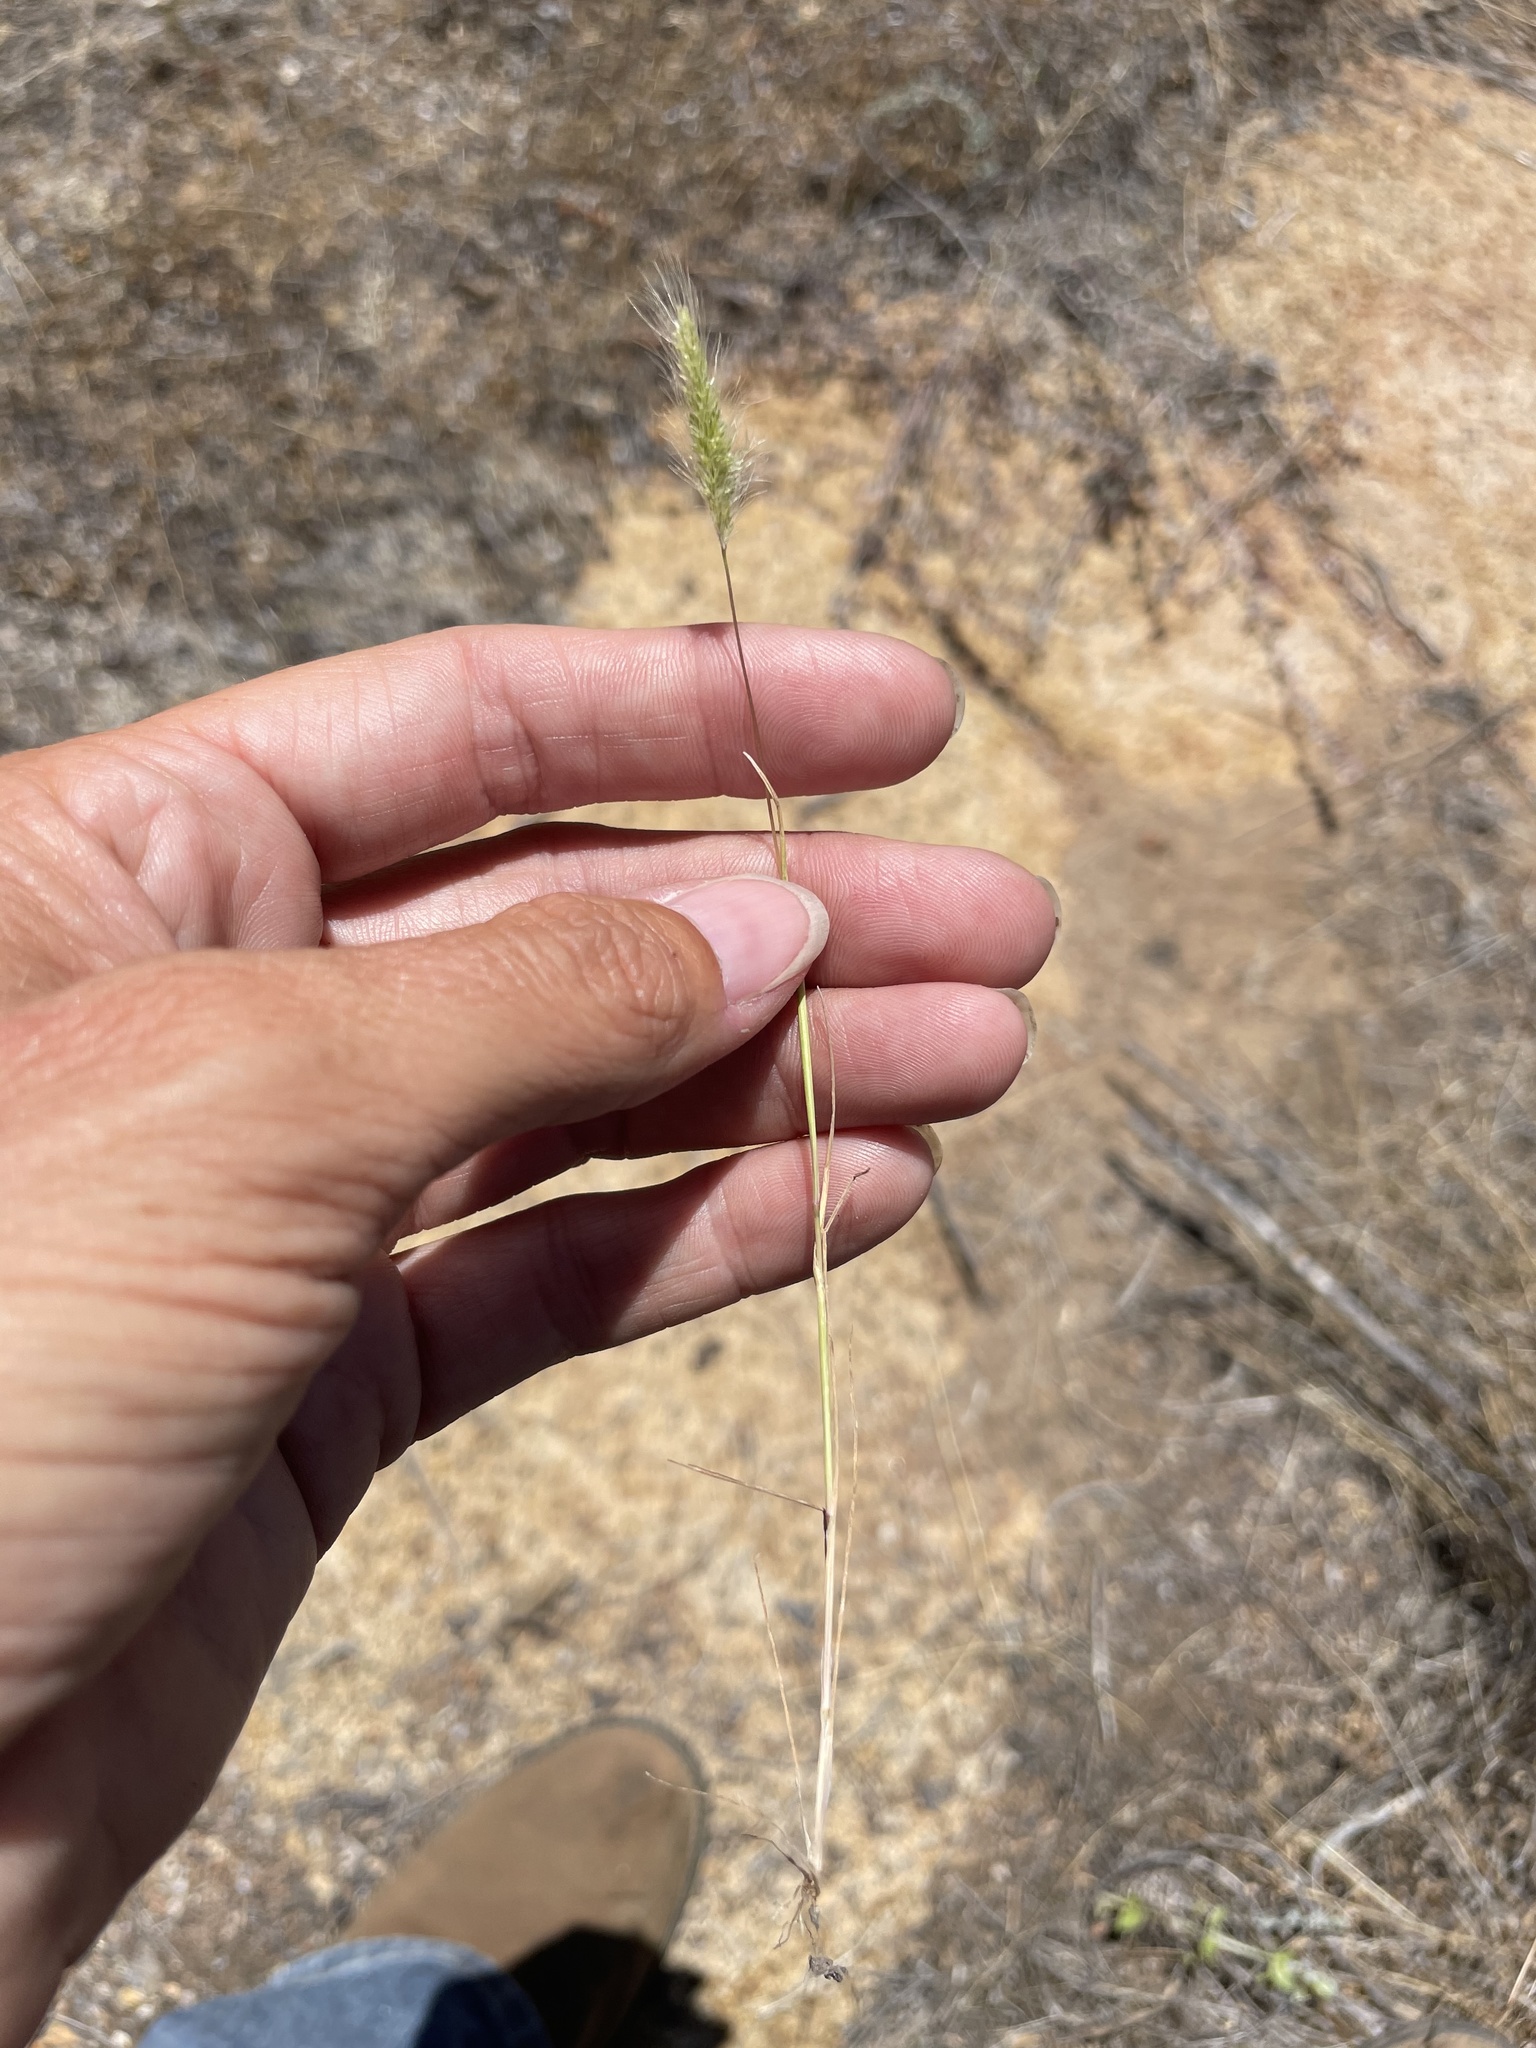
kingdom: Plantae
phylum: Tracheophyta
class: Liliopsida
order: Poales
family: Poaceae
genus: Polypogon
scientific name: Polypogon monspeliensis
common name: Annual rabbitsfoot grass
